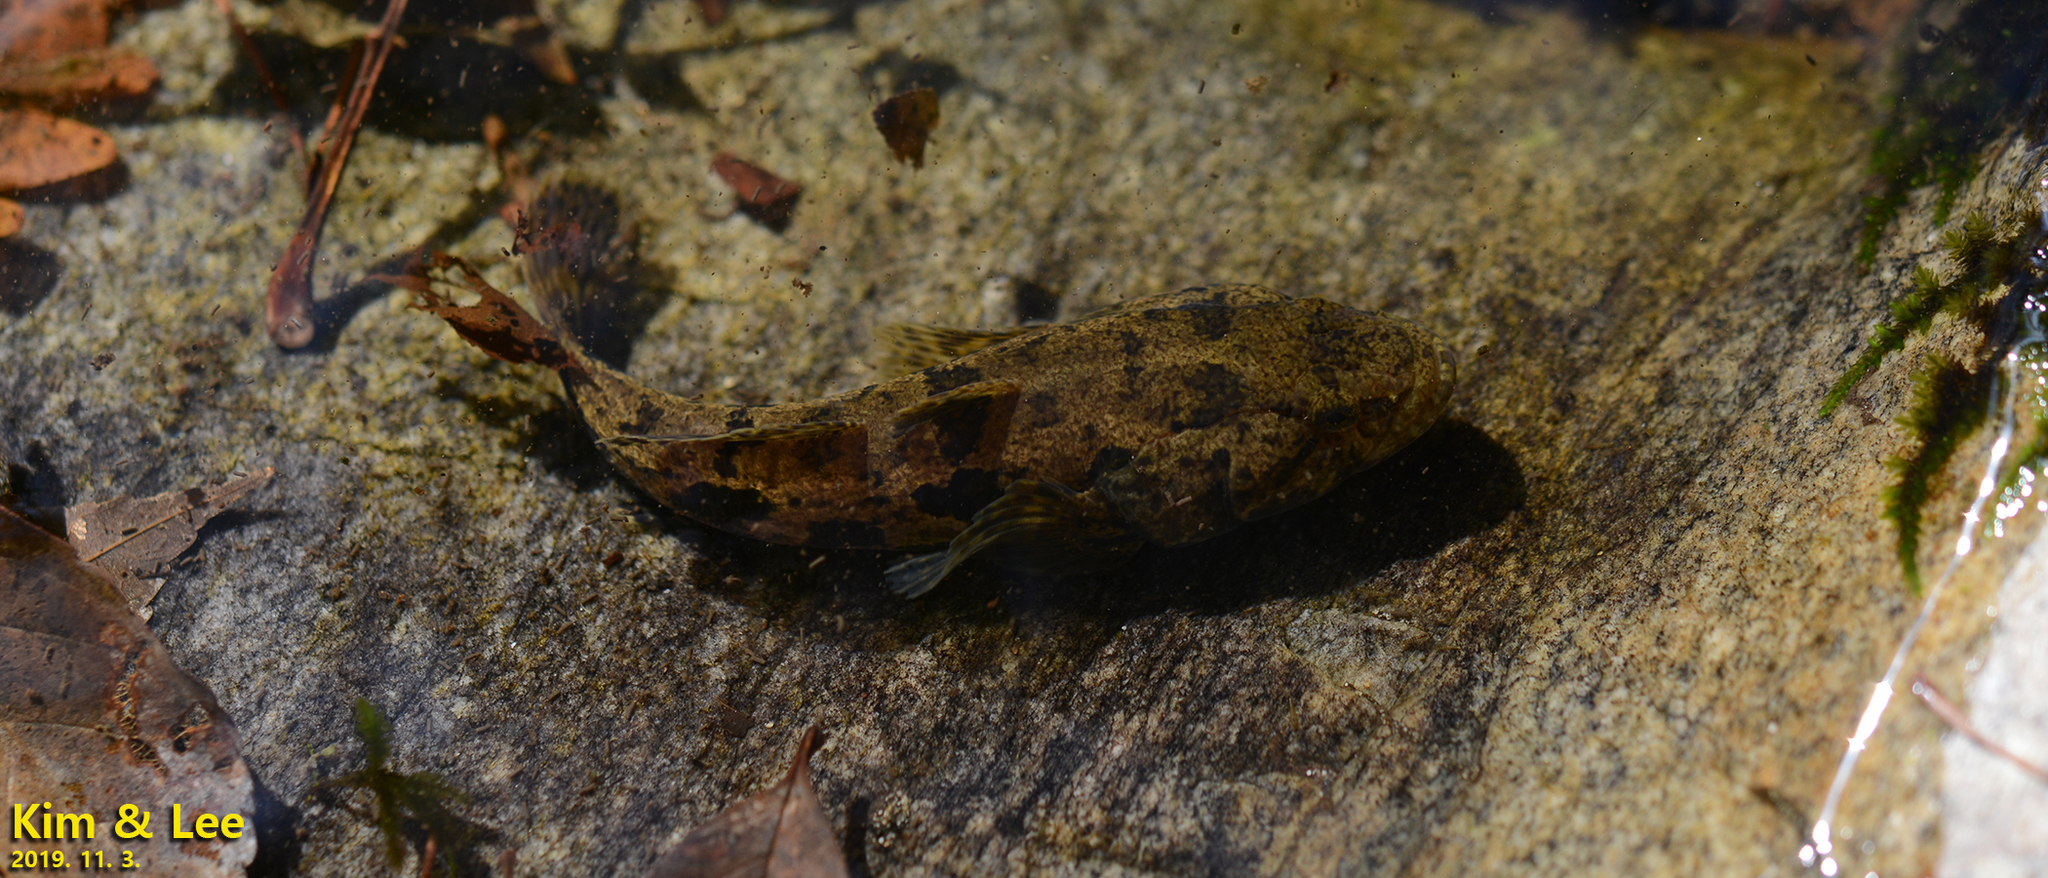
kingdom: Animalia
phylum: Chordata
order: Perciformes
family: Odontobutidae
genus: Odontobutis
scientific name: Odontobutis interrupta
